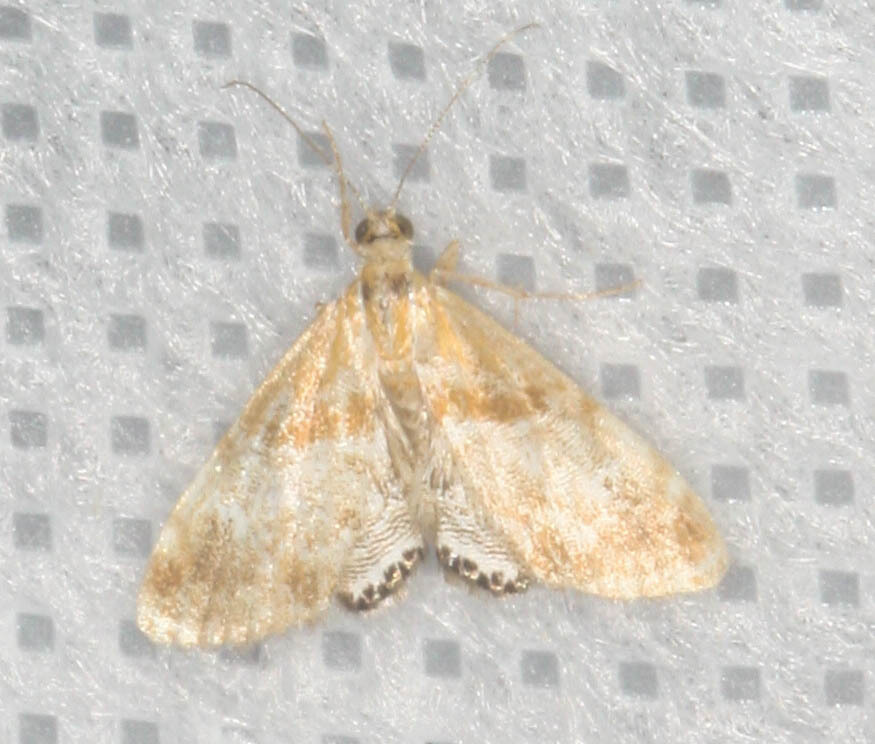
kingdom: Animalia
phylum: Arthropoda
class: Insecta
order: Lepidoptera
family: Crambidae
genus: Dicymolomia
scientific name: Dicymolomia metalliferalis
